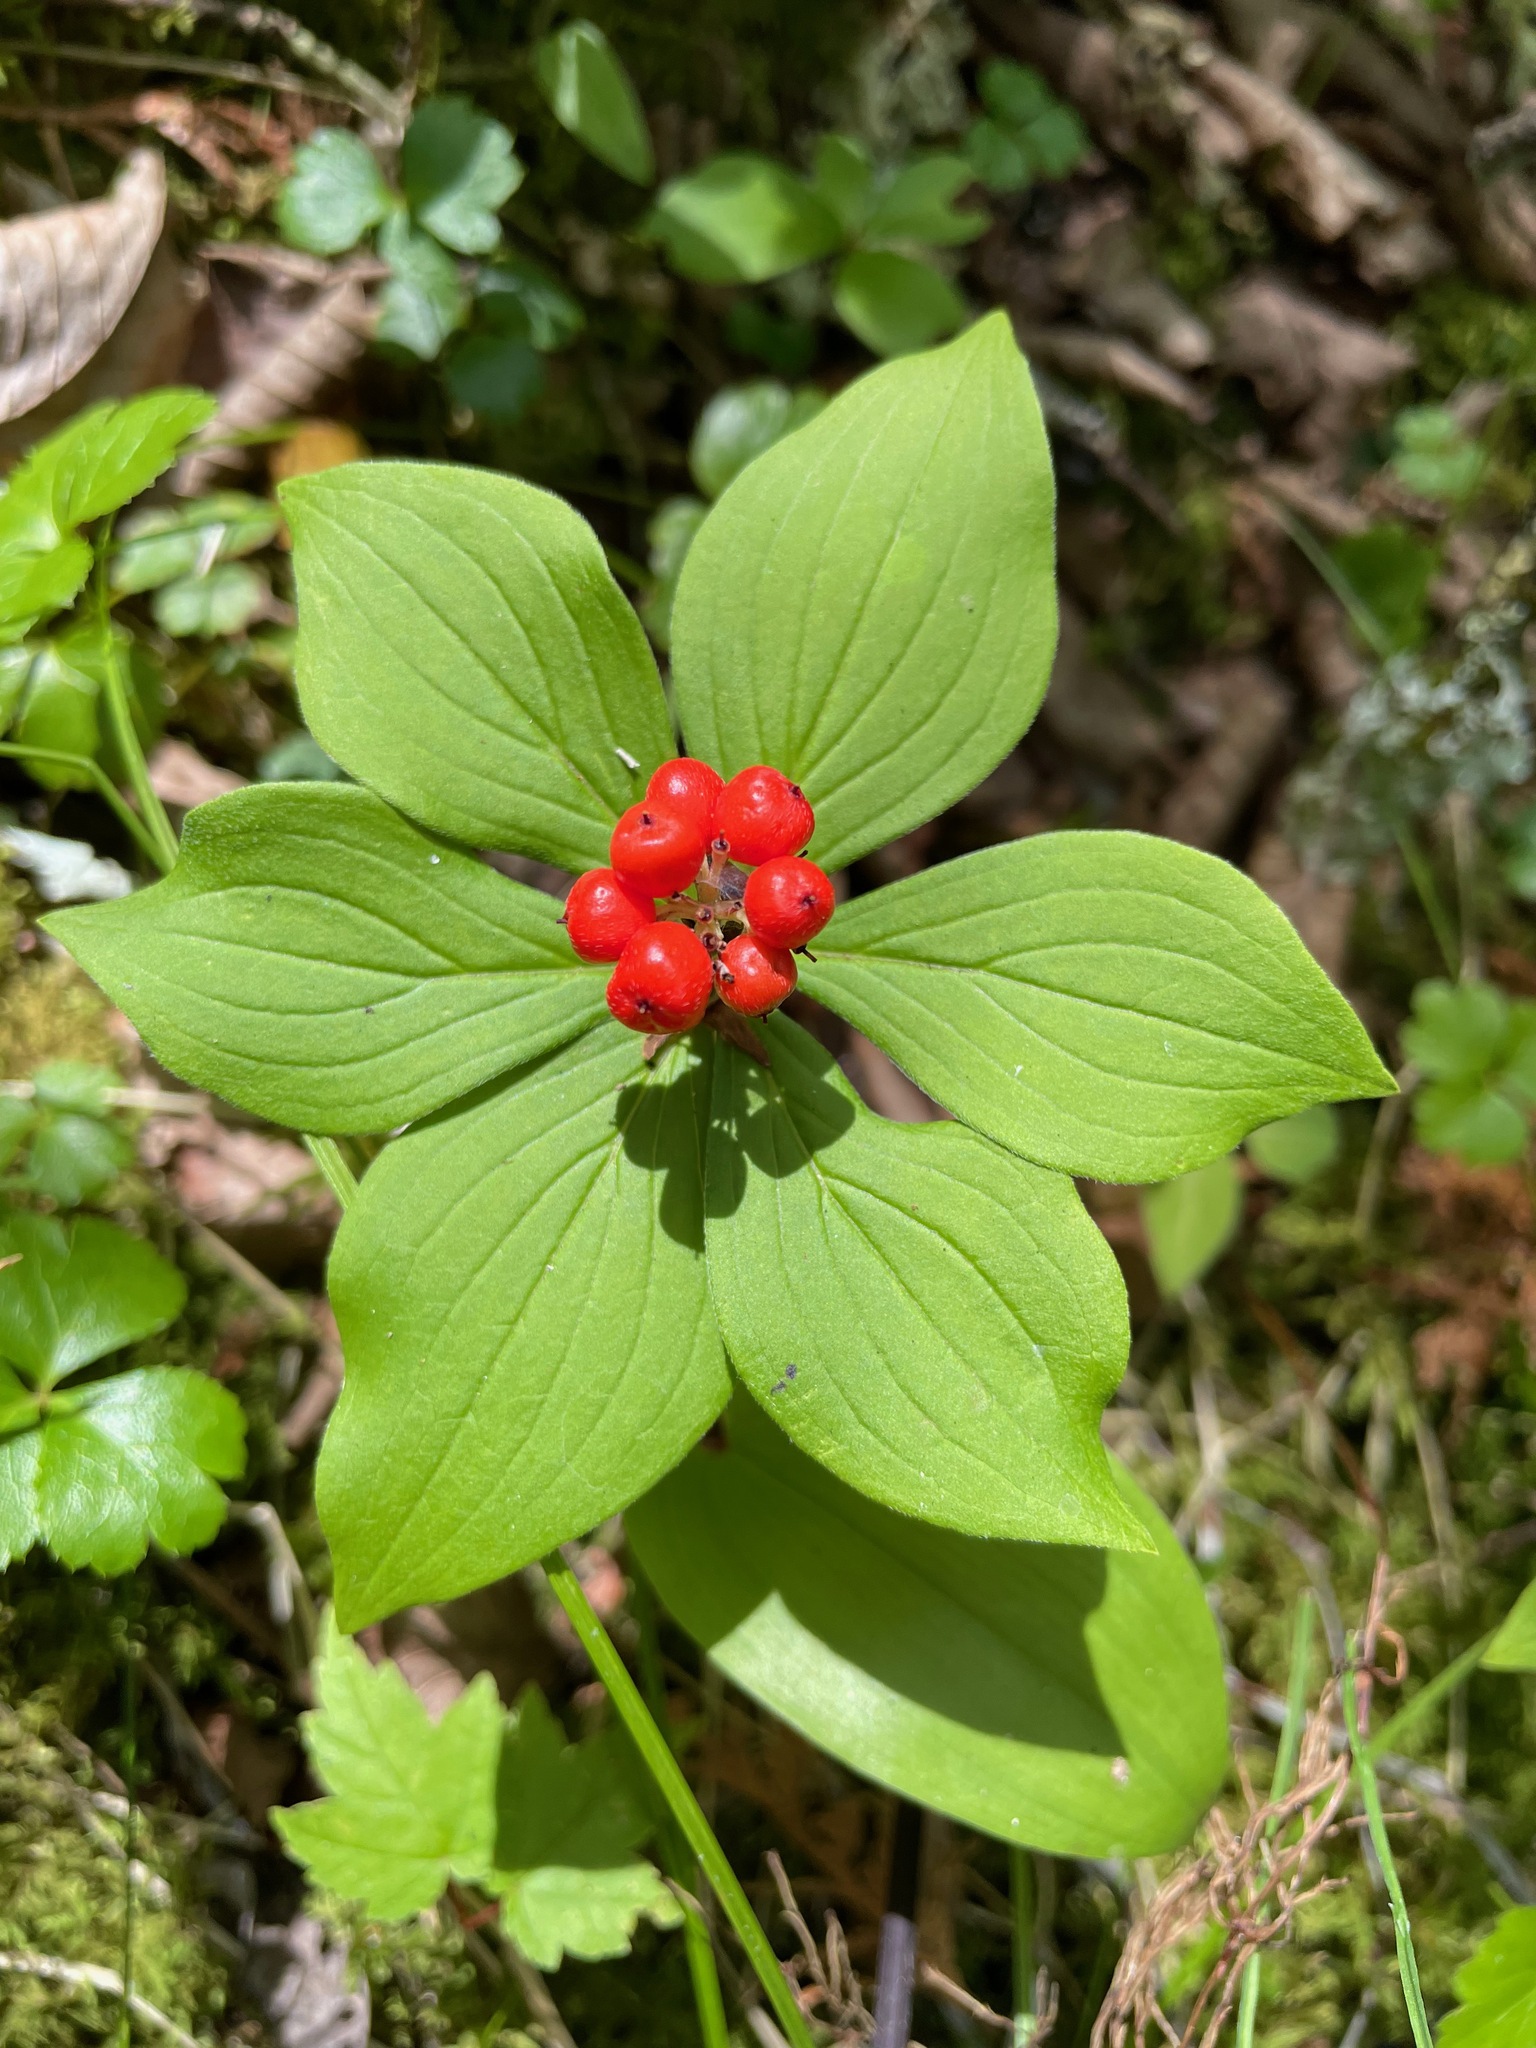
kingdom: Plantae
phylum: Tracheophyta
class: Magnoliopsida
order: Cornales
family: Cornaceae
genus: Cornus
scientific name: Cornus canadensis
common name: Creeping dogwood
